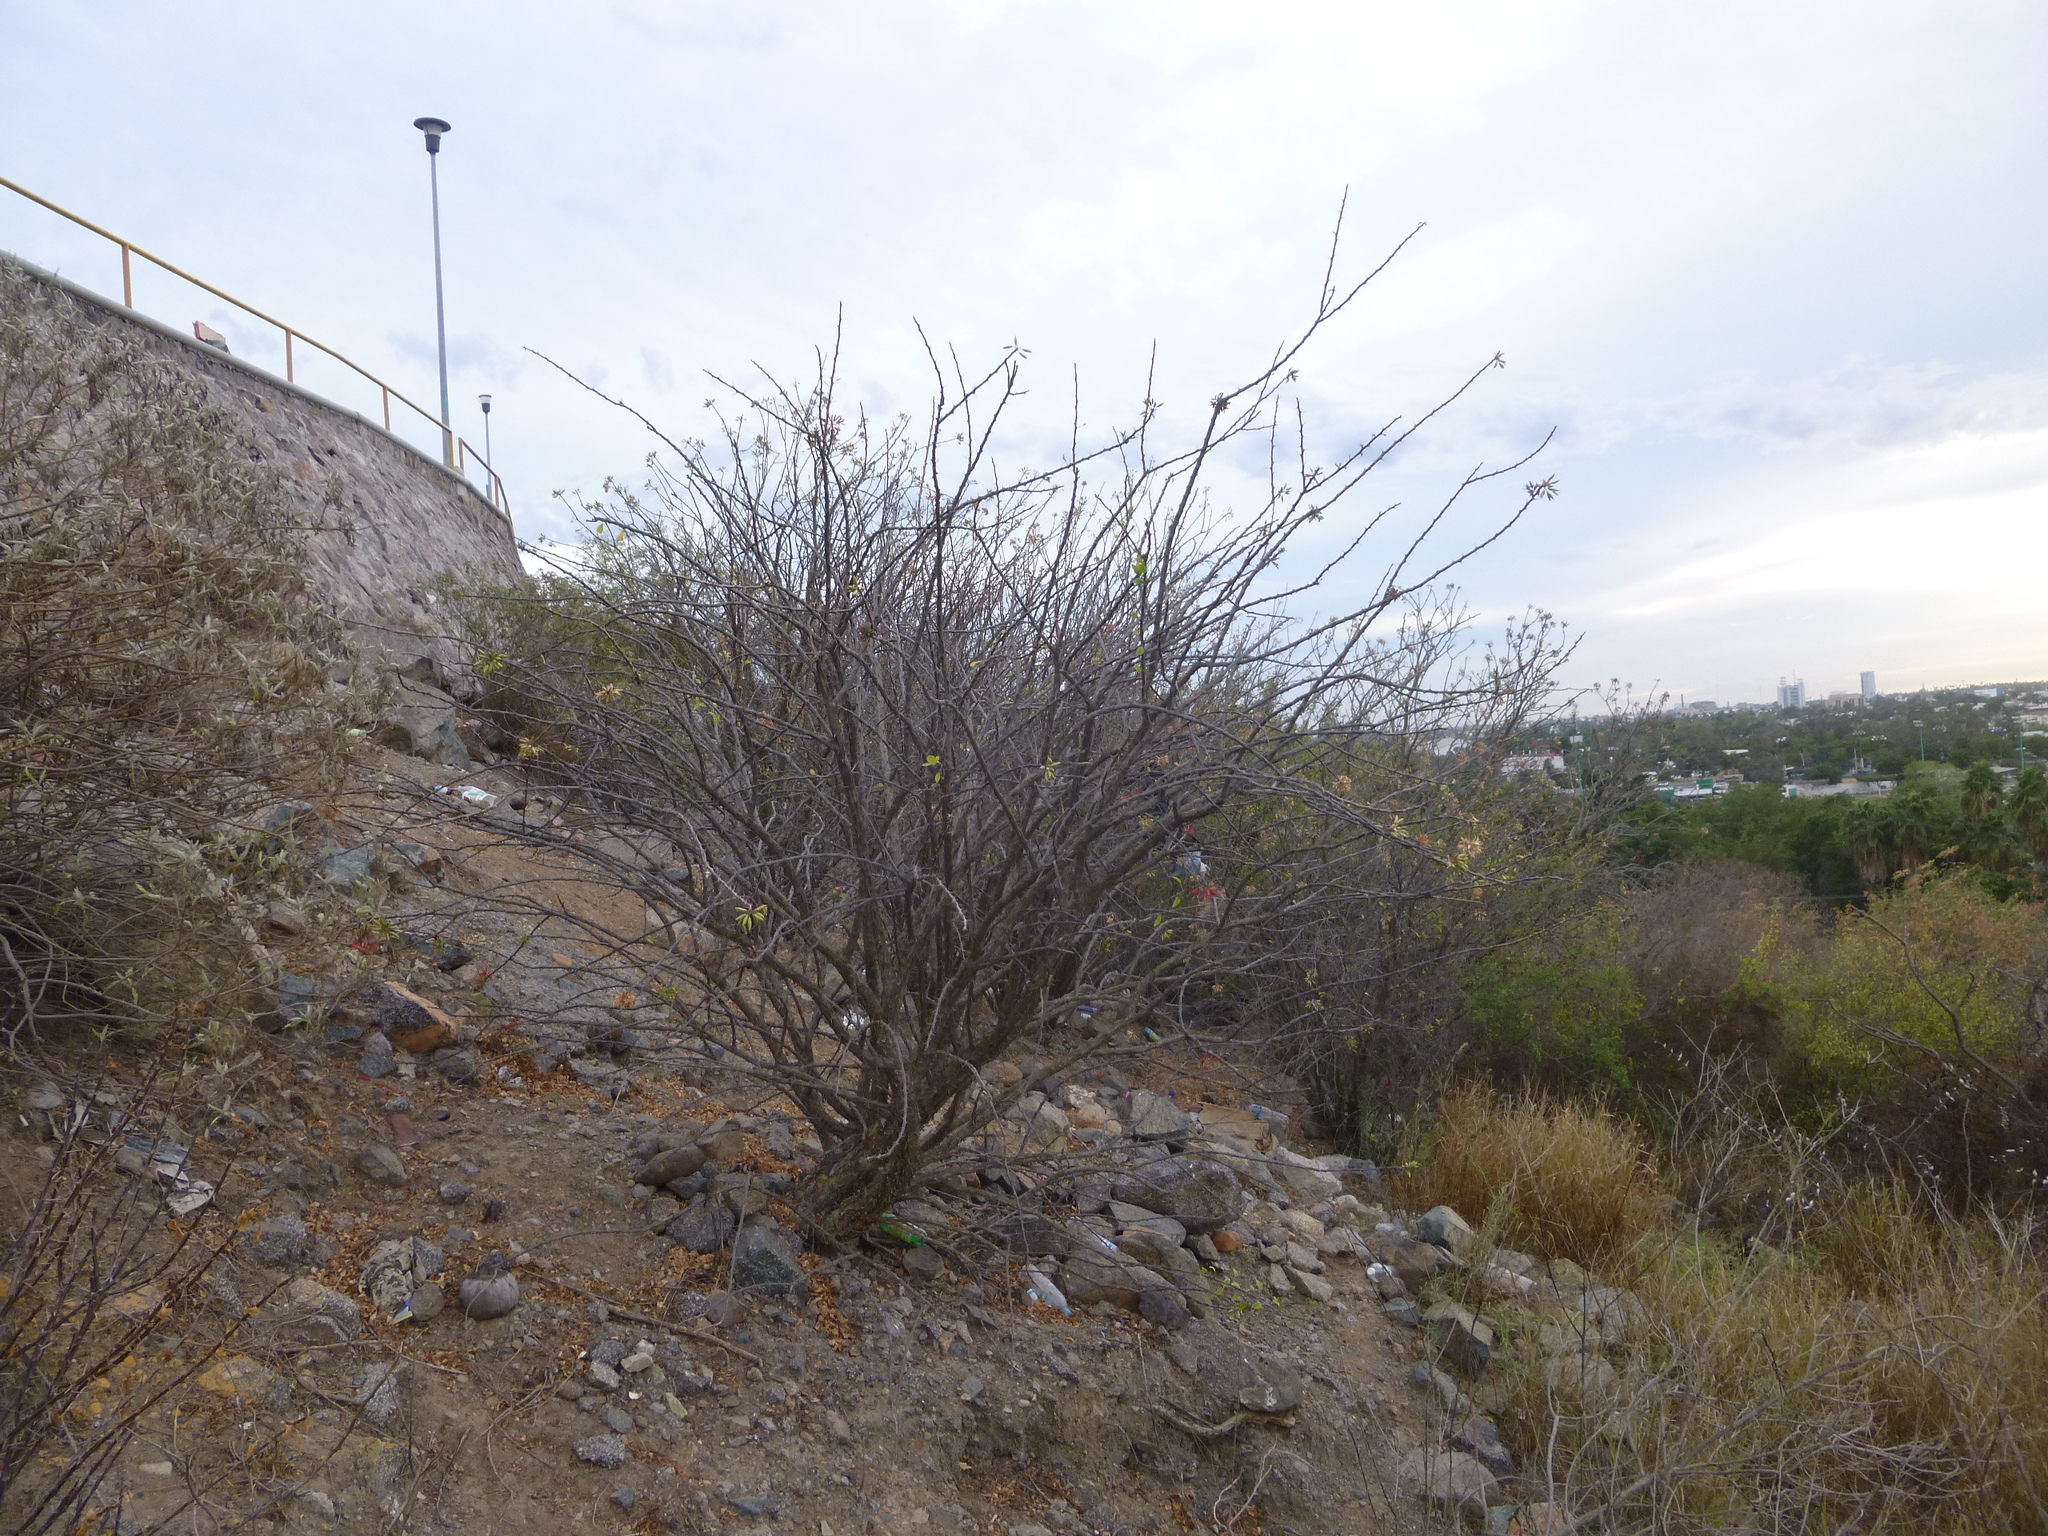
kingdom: Plantae
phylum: Tracheophyta
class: Magnoliopsida
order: Ericales
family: Fouquieriaceae
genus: Fouquieria
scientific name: Fouquieria macdougalii
